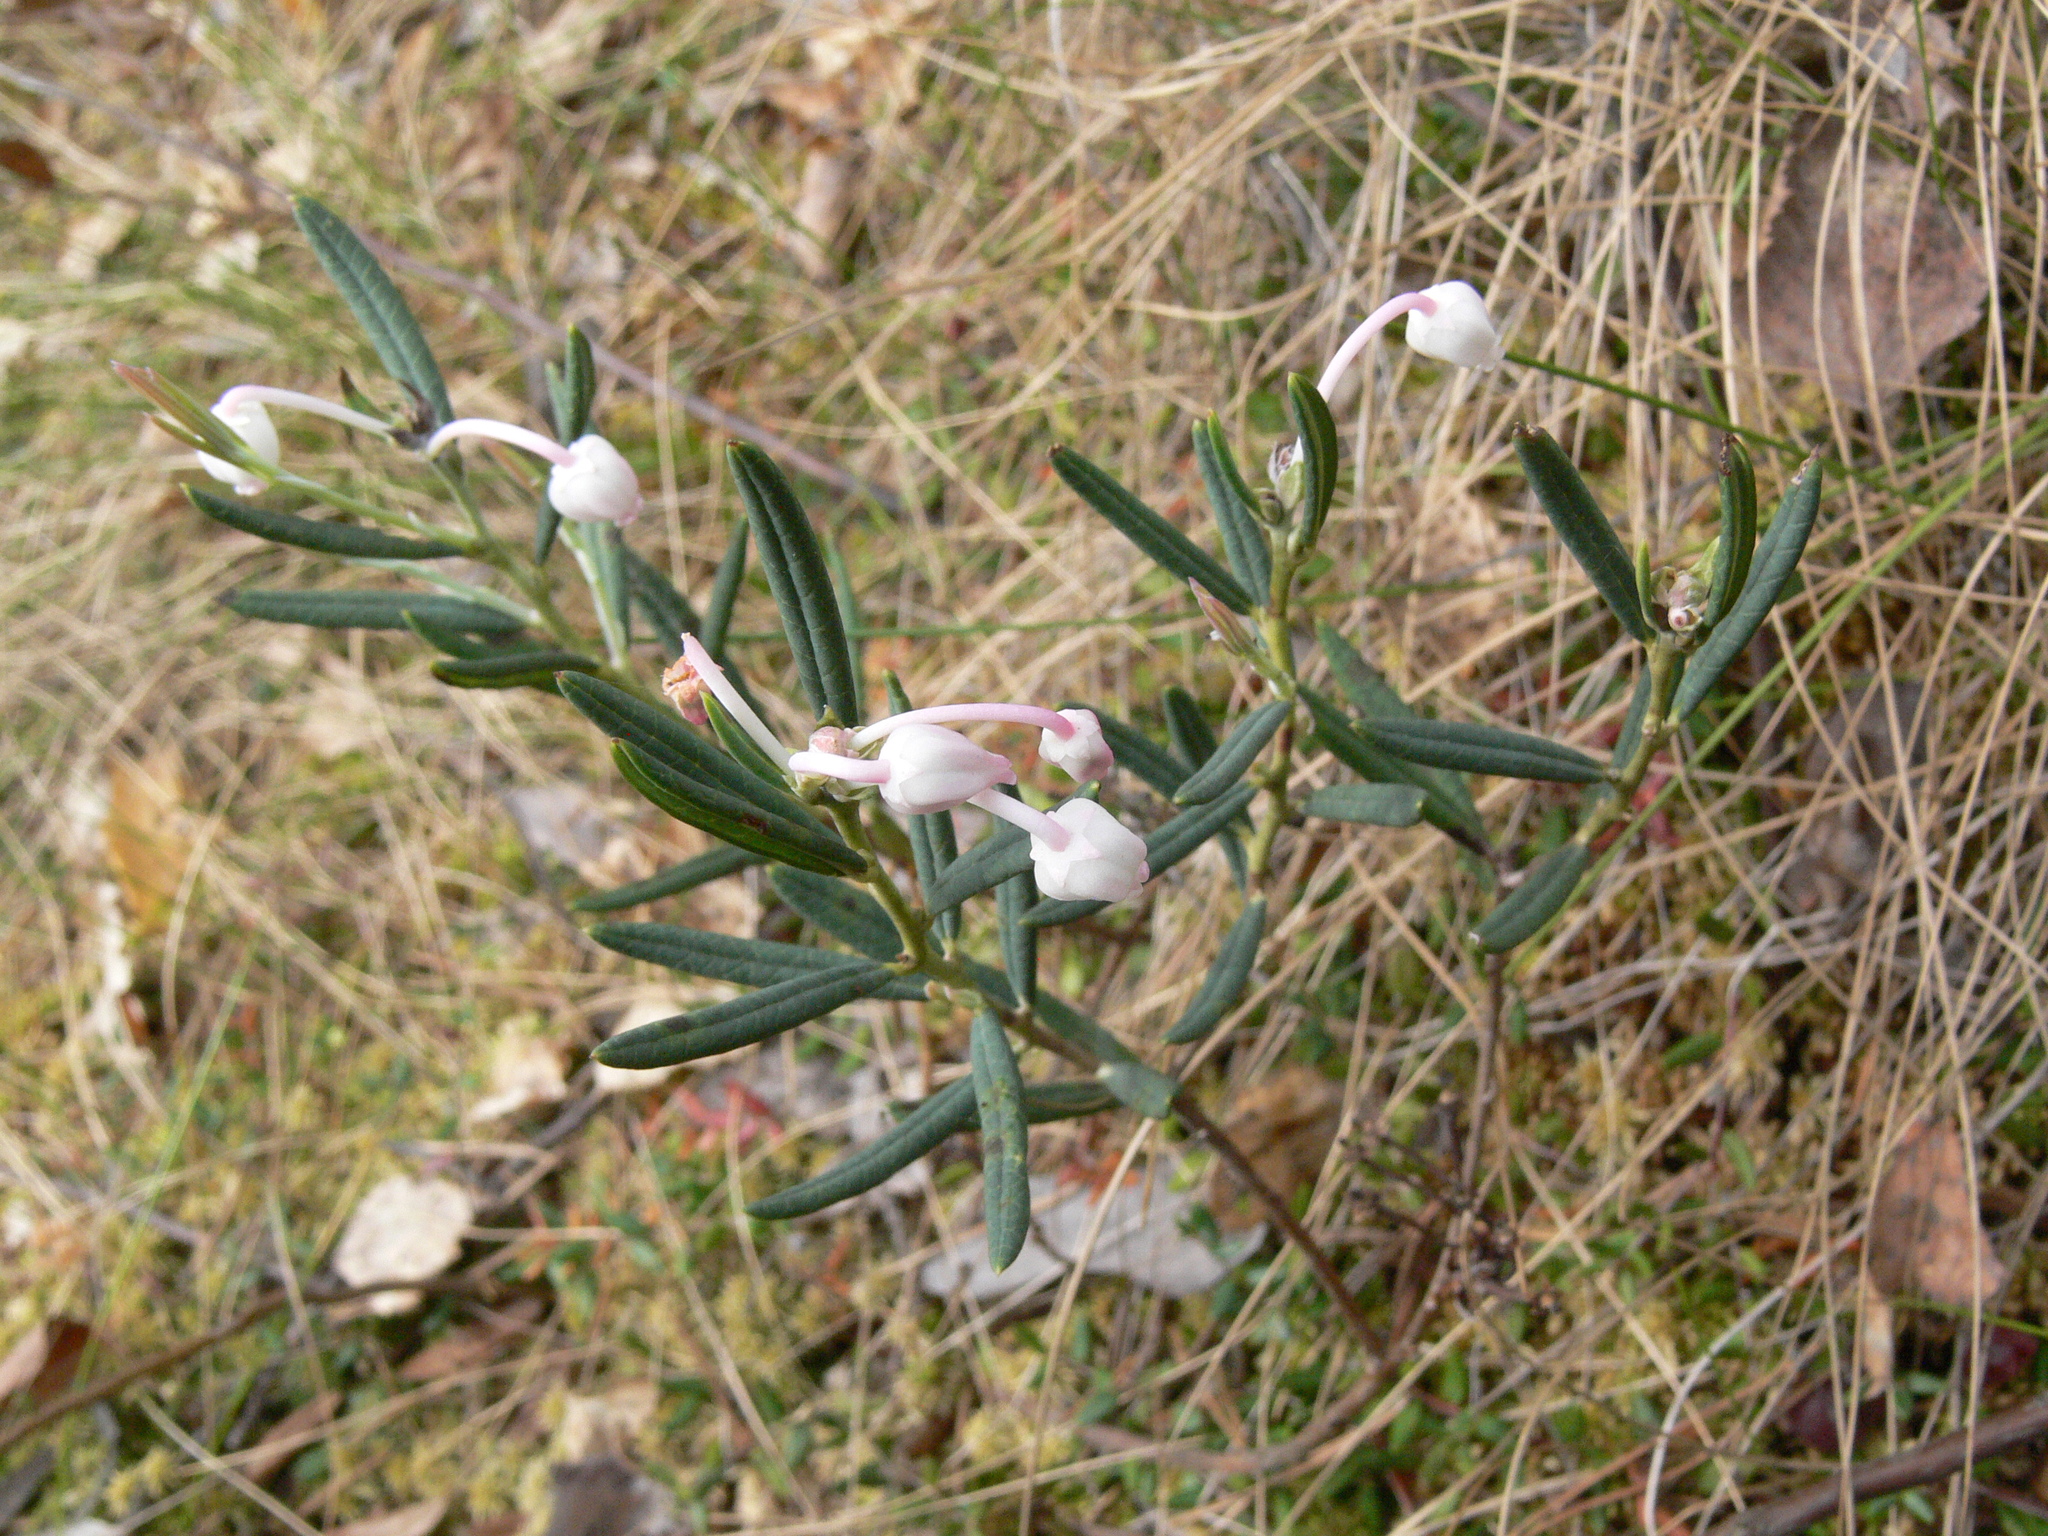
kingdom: Plantae
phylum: Tracheophyta
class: Magnoliopsida
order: Ericales
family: Ericaceae
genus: Andromeda
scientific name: Andromeda polifolia
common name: Bog-rosemary
